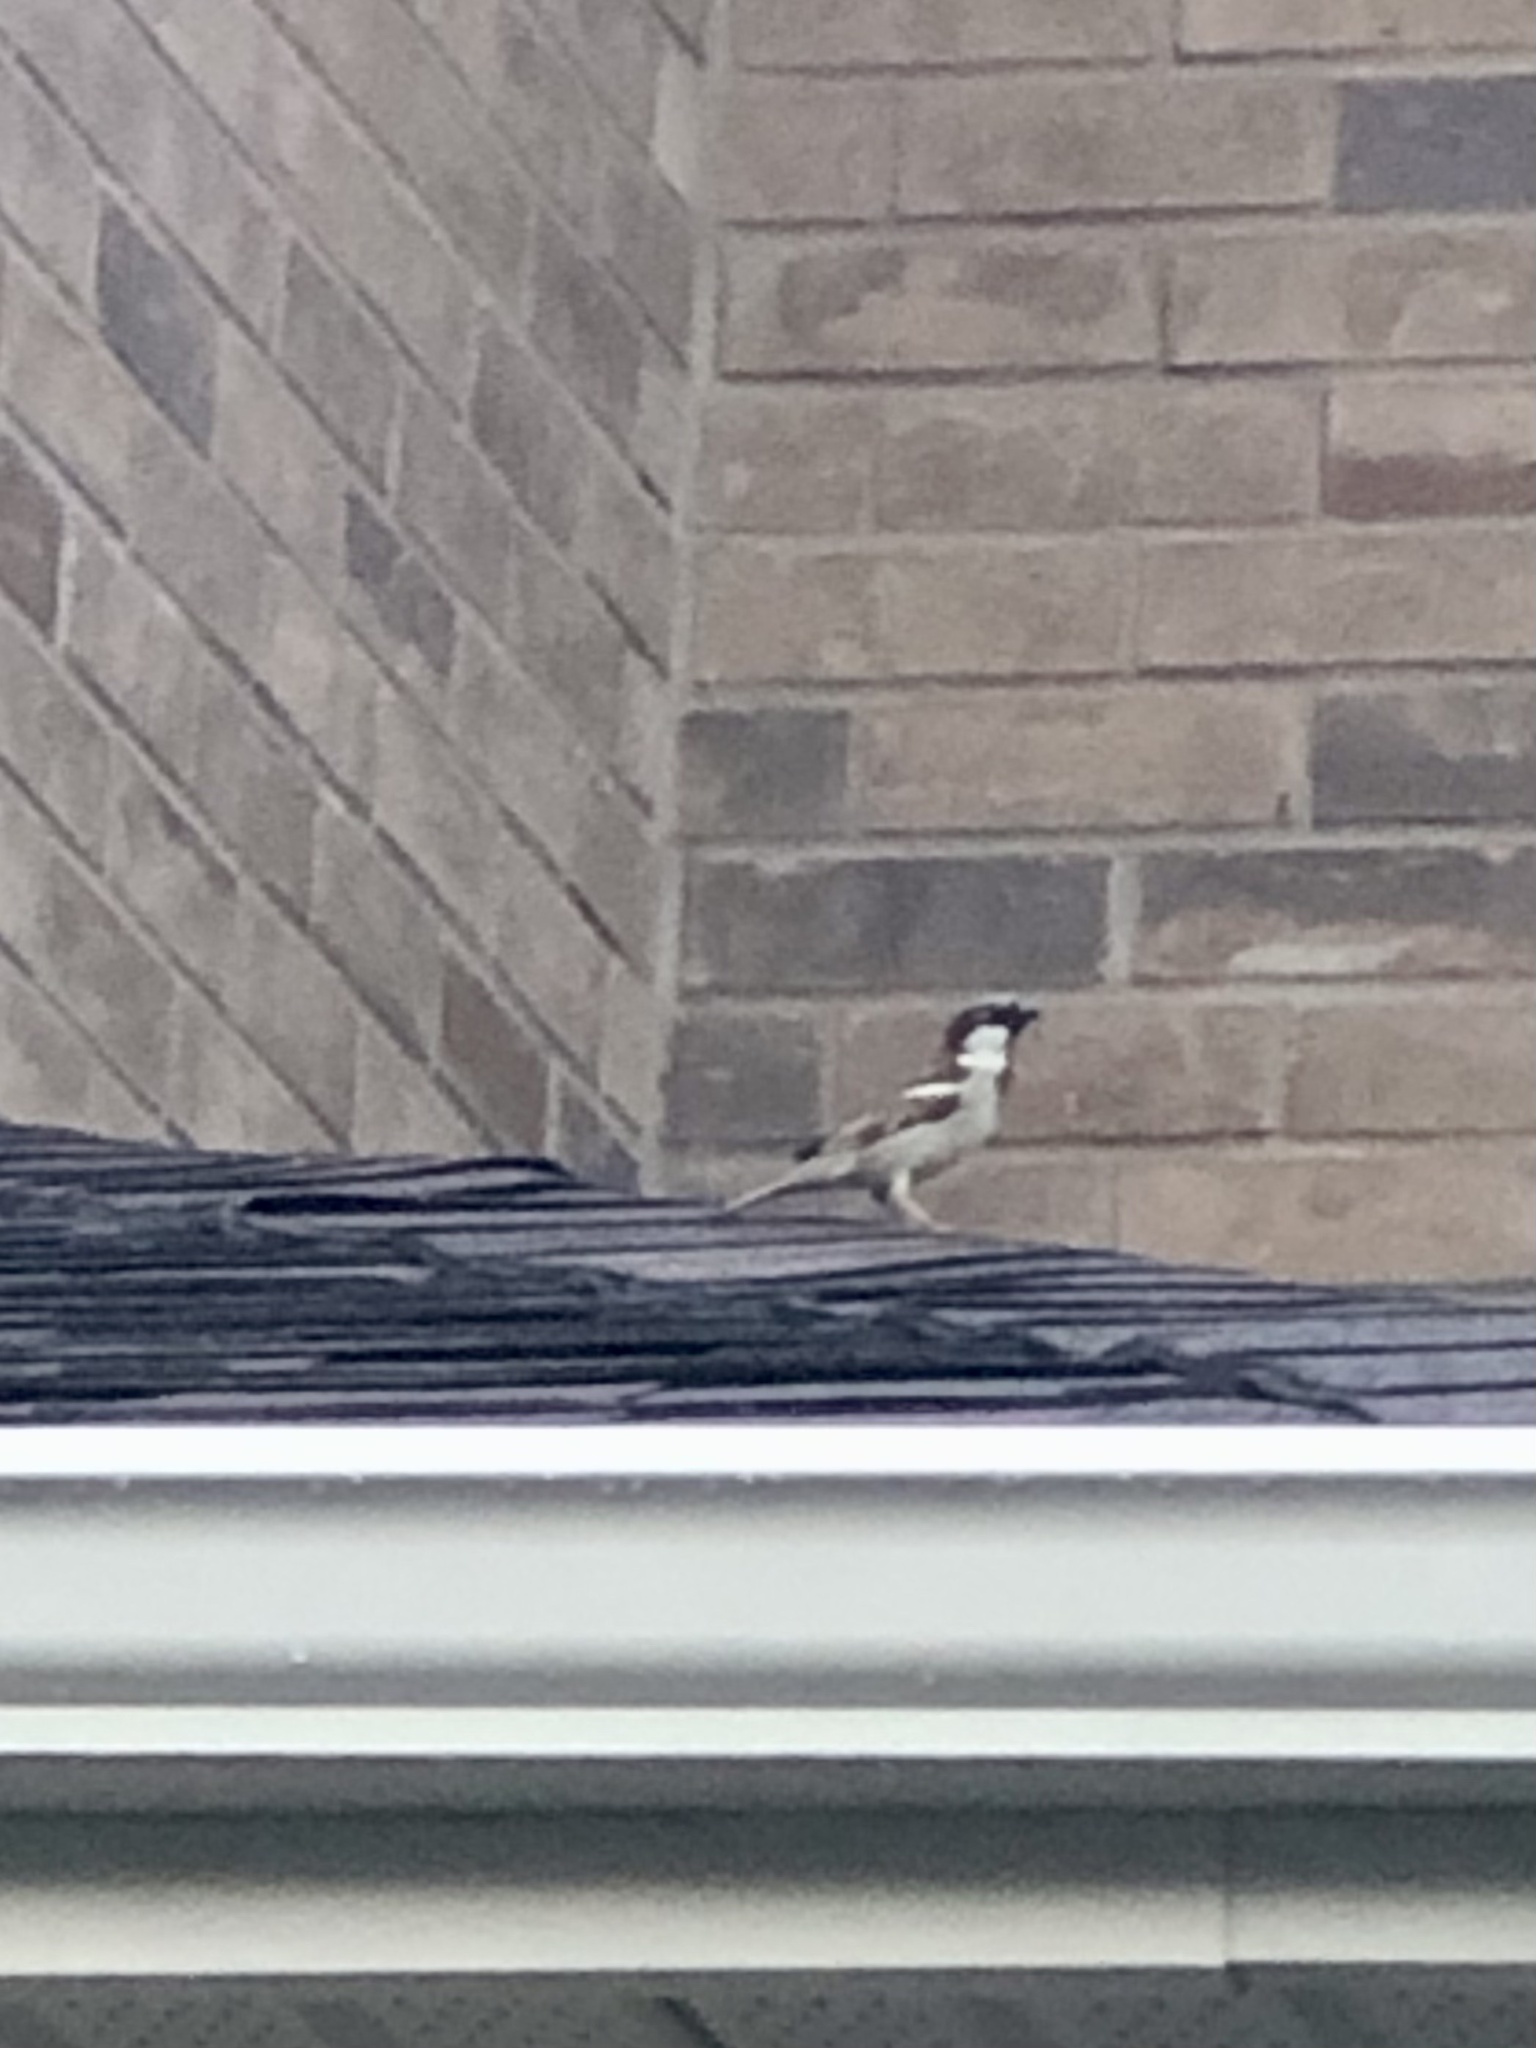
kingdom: Animalia
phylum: Chordata
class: Aves
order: Passeriformes
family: Passeridae
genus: Passer
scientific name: Passer domesticus
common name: House sparrow
